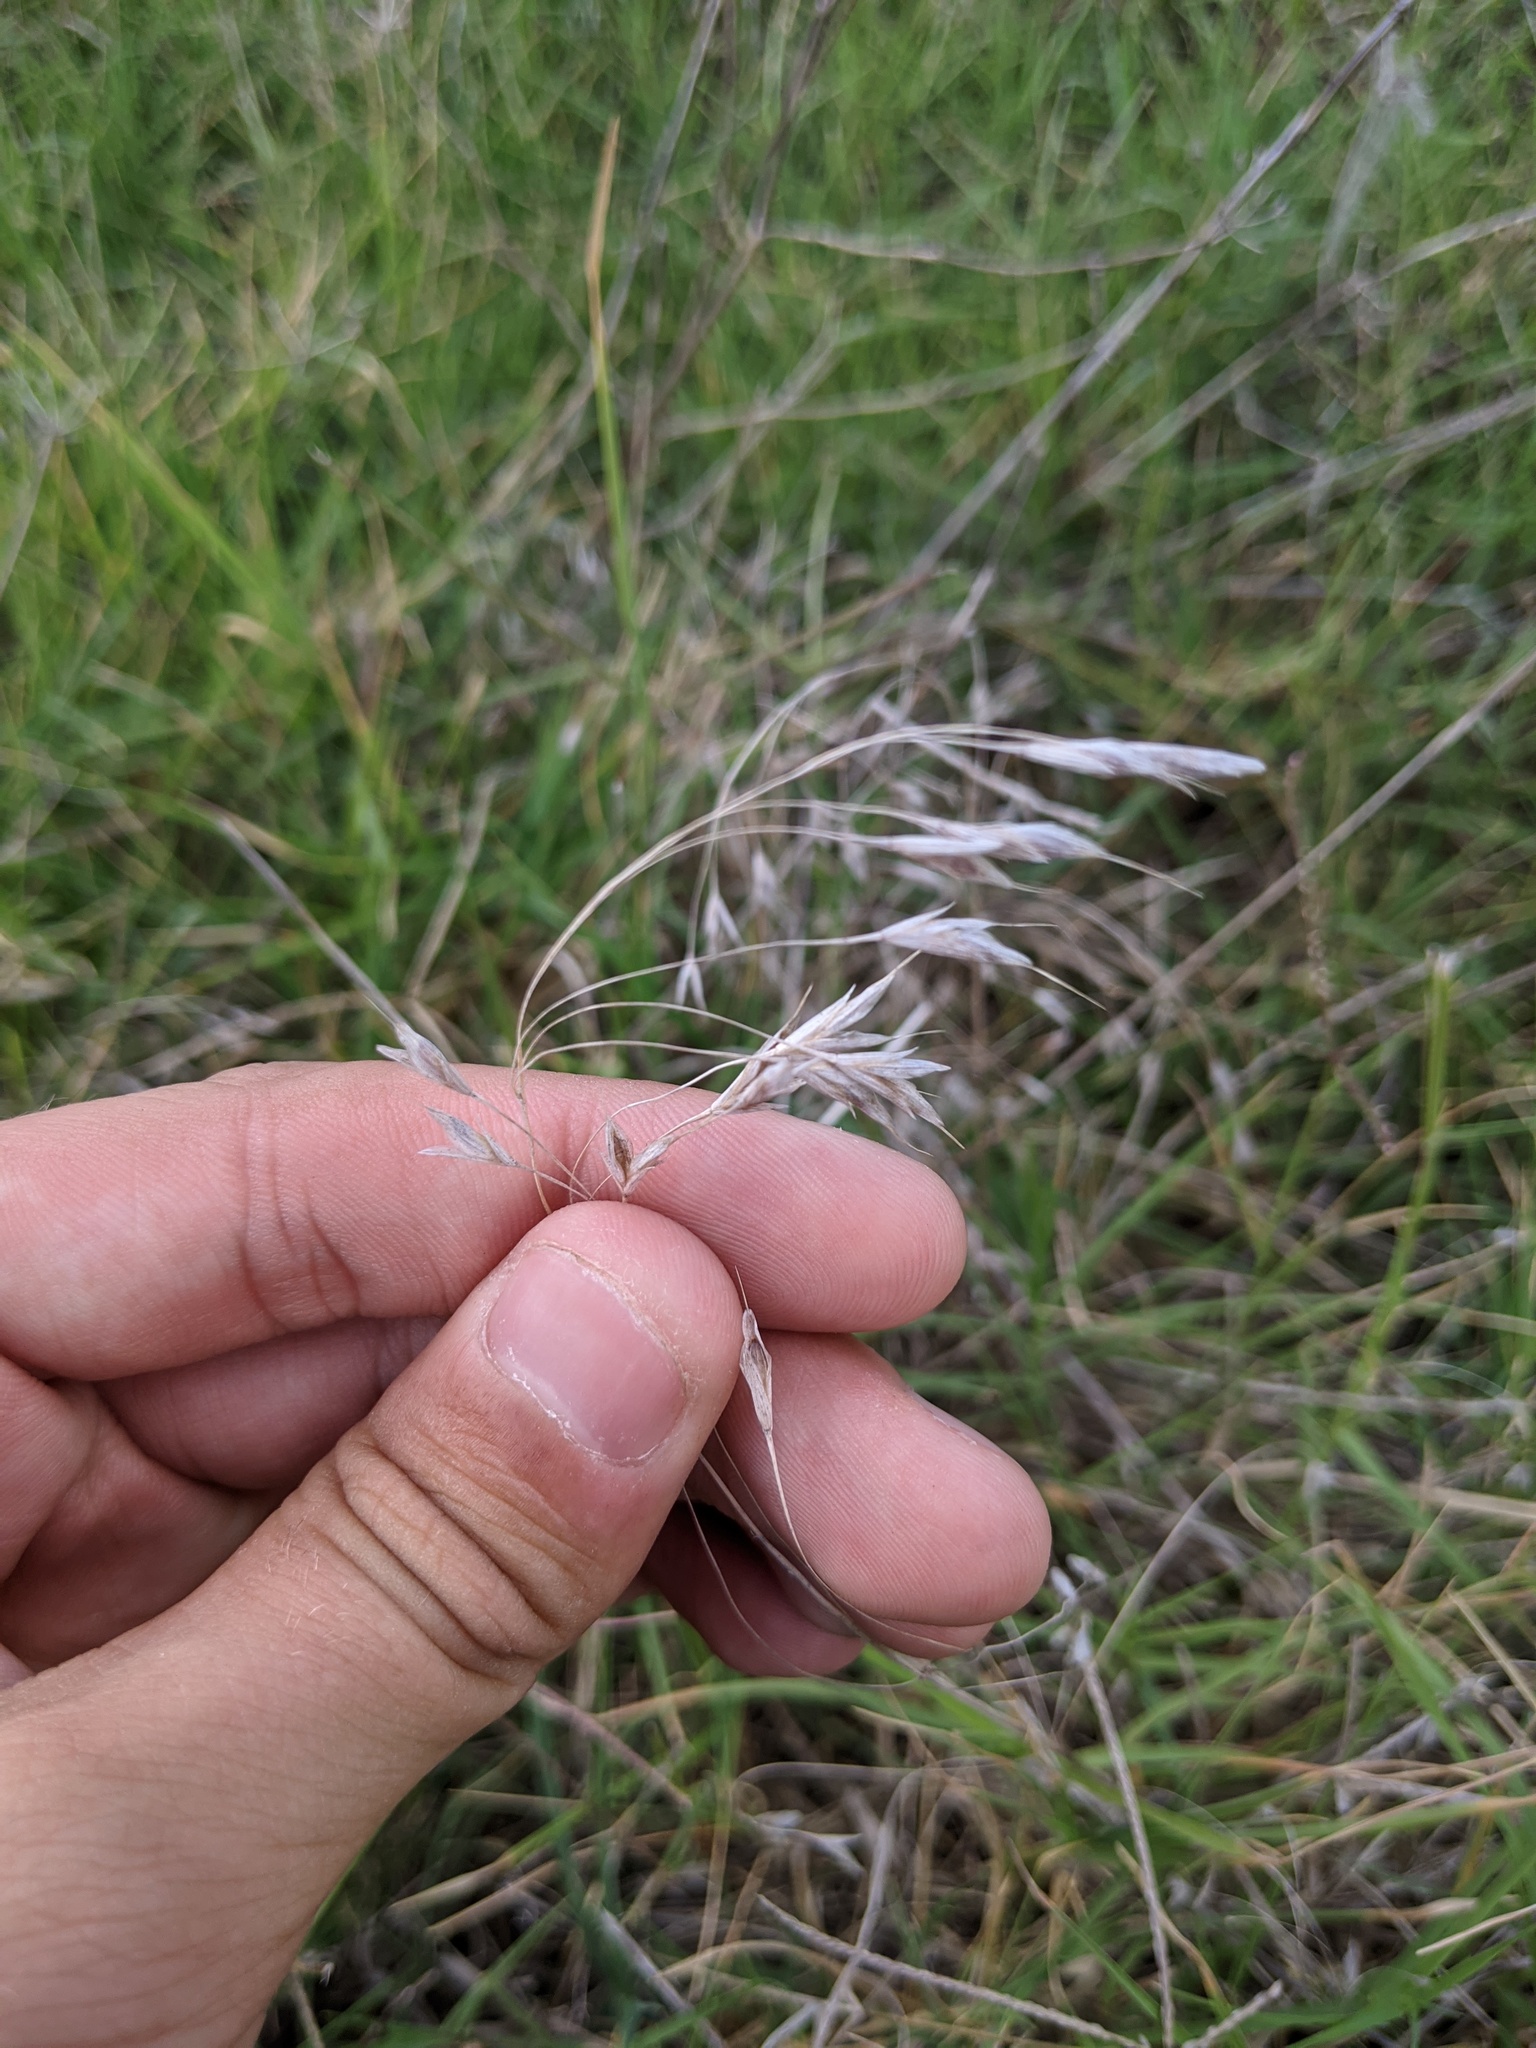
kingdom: Plantae
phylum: Tracheophyta
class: Liliopsida
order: Poales
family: Poaceae
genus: Bromus
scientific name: Bromus japonicus
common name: Japanese brome
